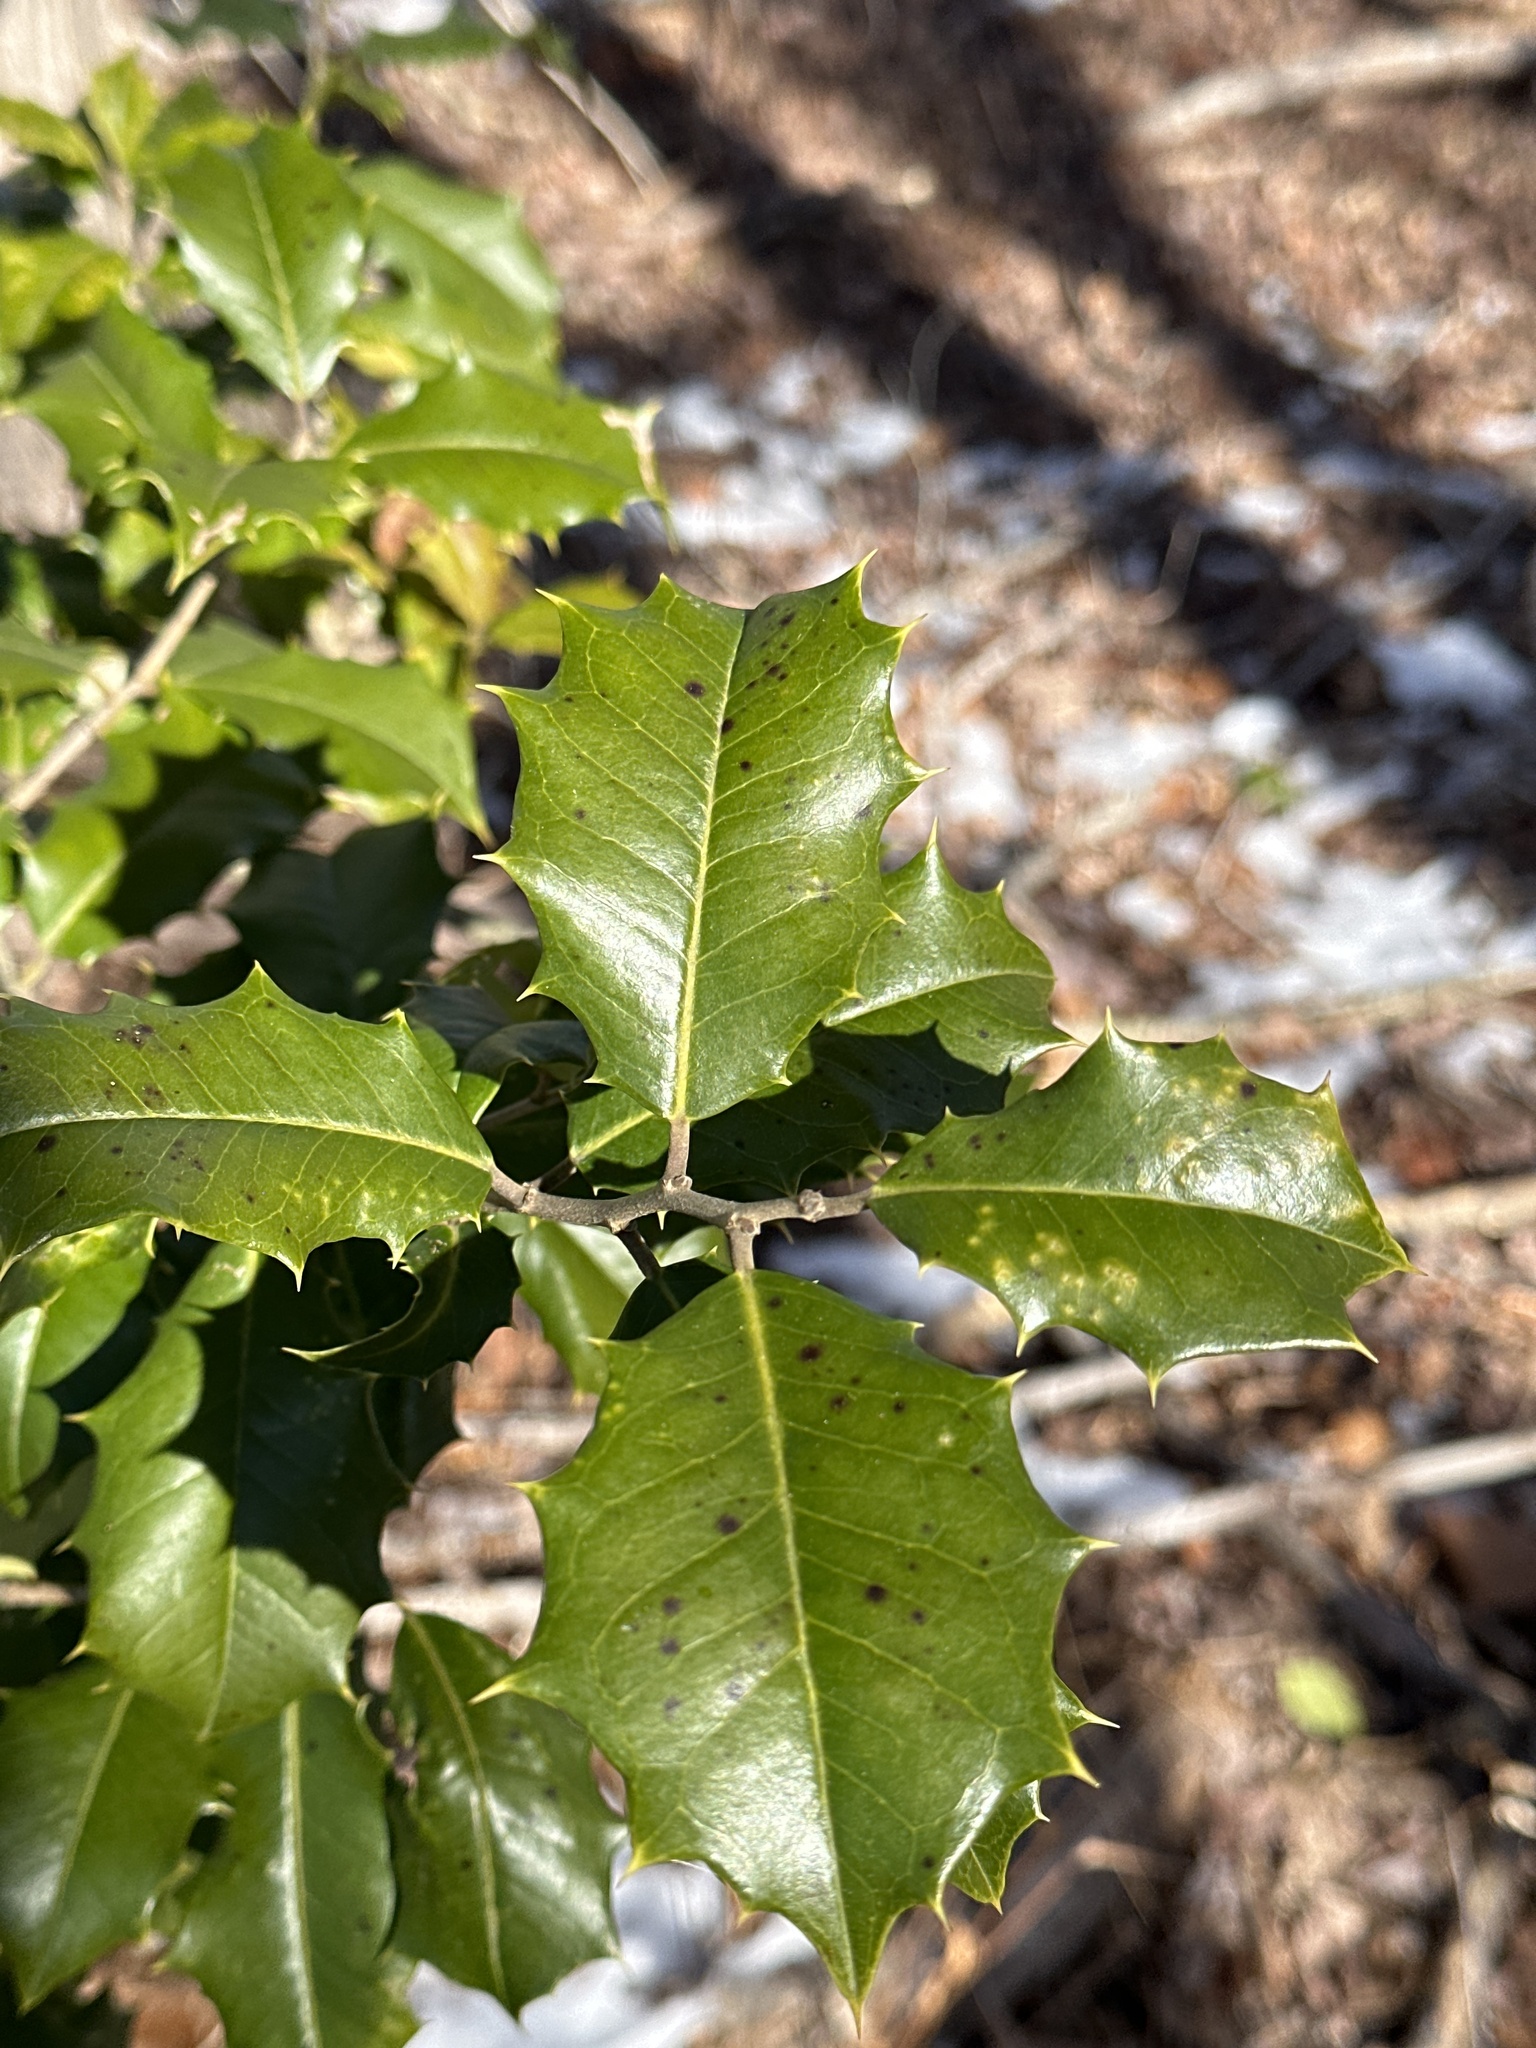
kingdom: Plantae
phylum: Tracheophyta
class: Magnoliopsida
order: Aquifoliales
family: Aquifoliaceae
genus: Ilex
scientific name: Ilex opaca
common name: American holly
